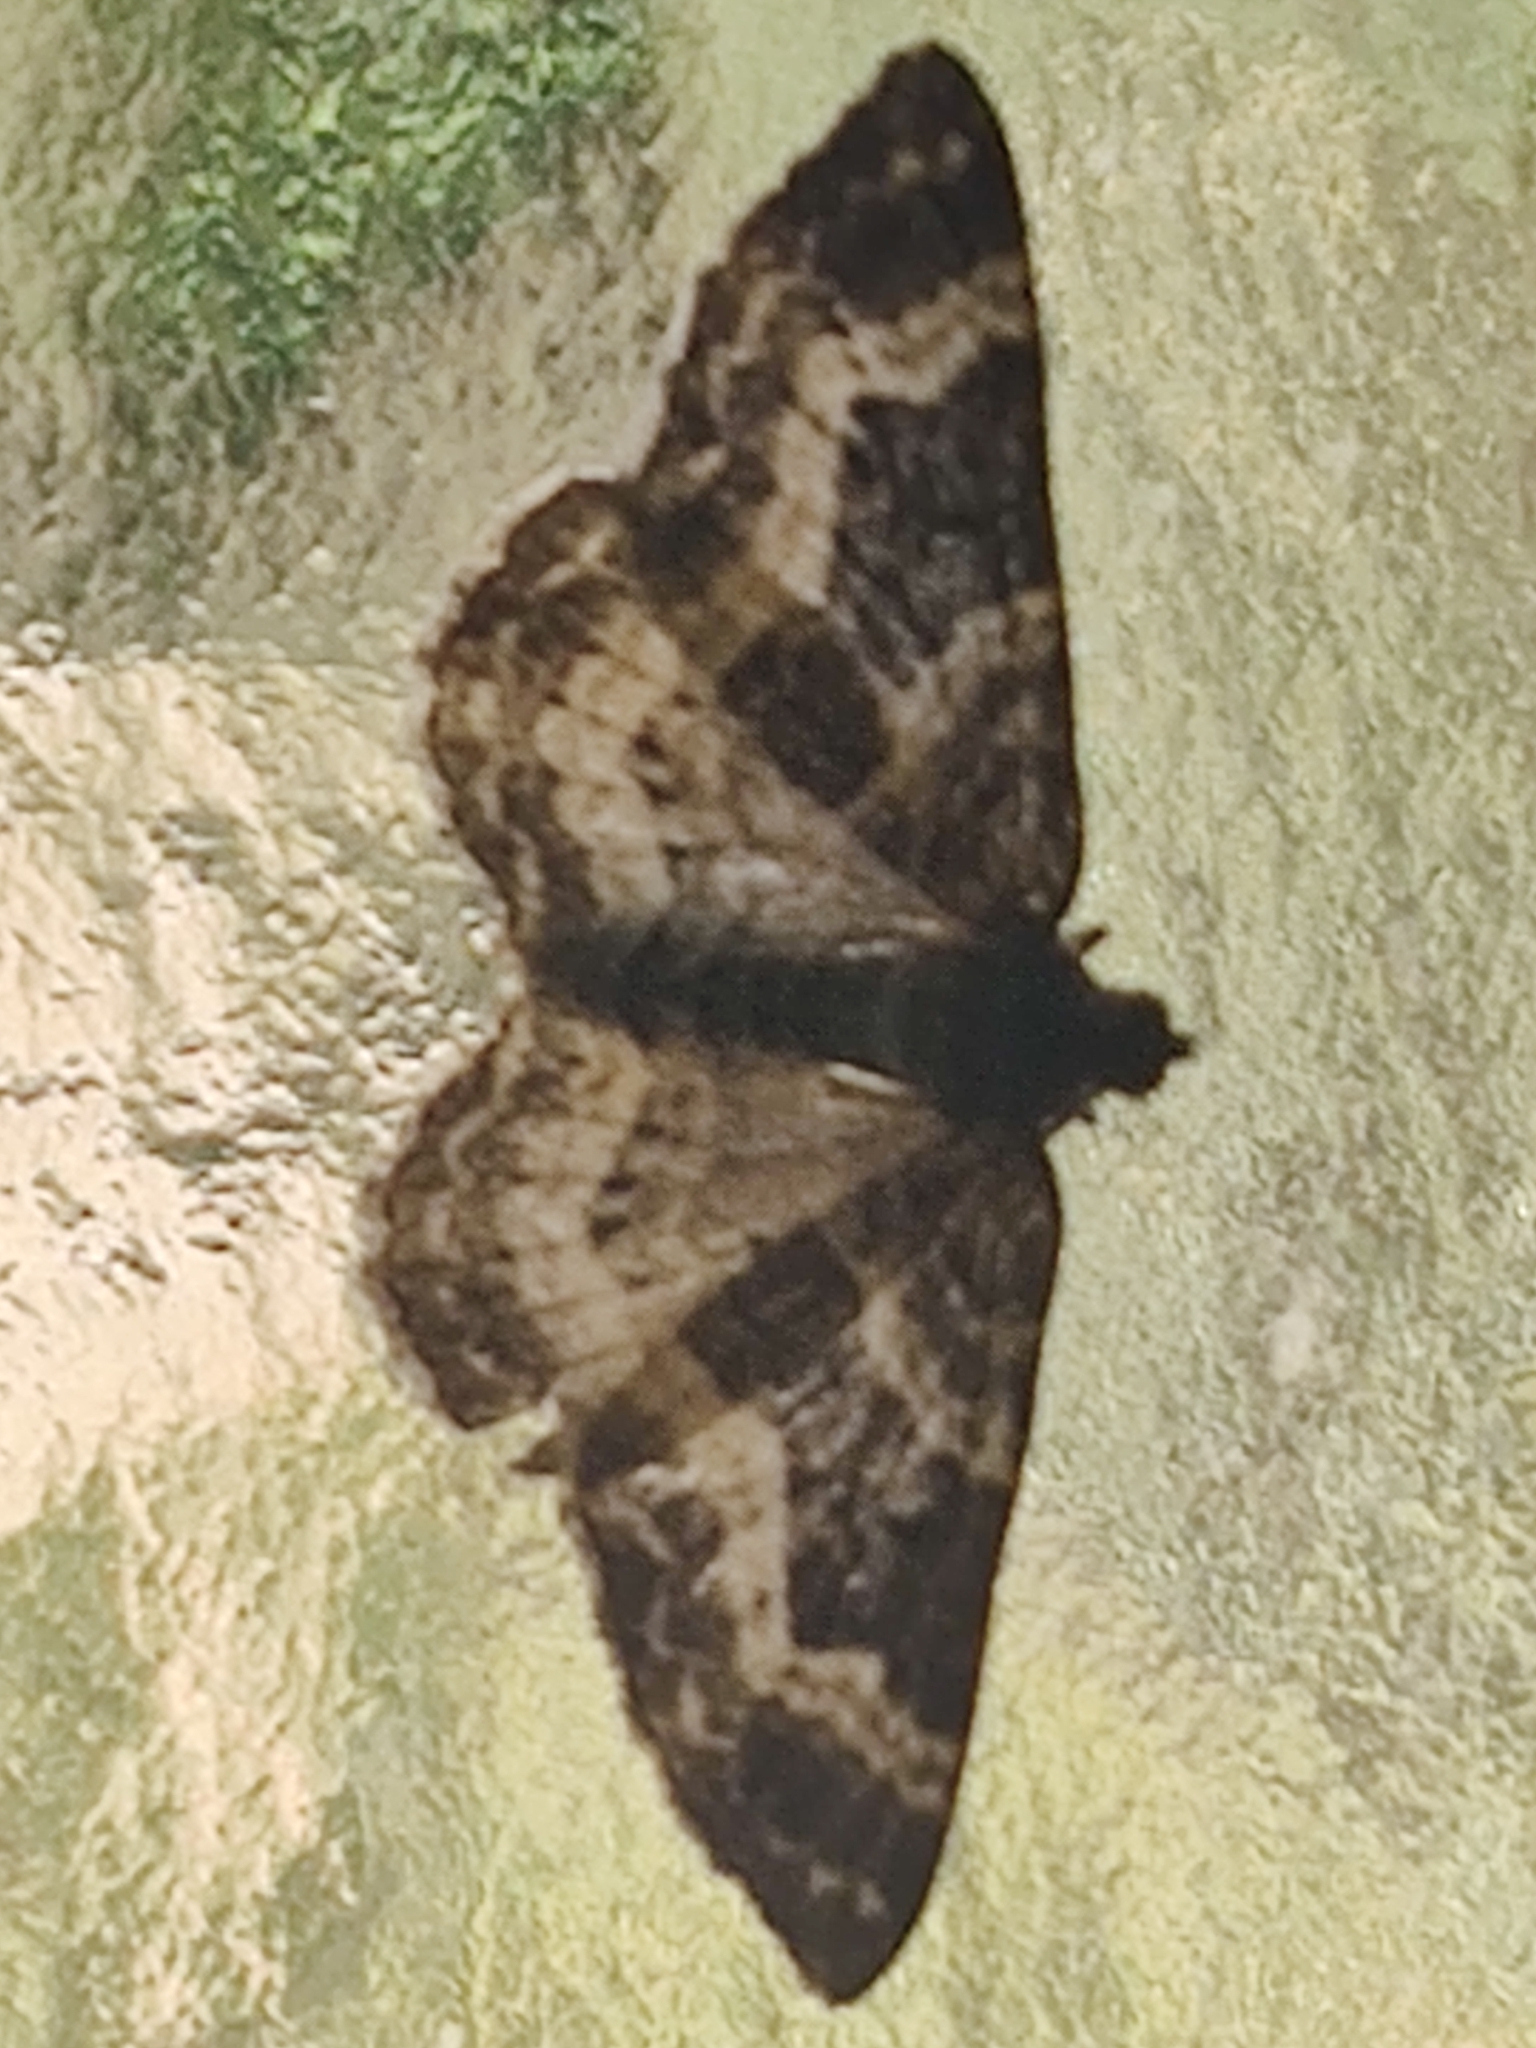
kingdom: Animalia
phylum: Arthropoda
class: Insecta
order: Lepidoptera
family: Geometridae
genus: Epirrhoe
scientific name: Epirrhoe alternata
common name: Common carpet
